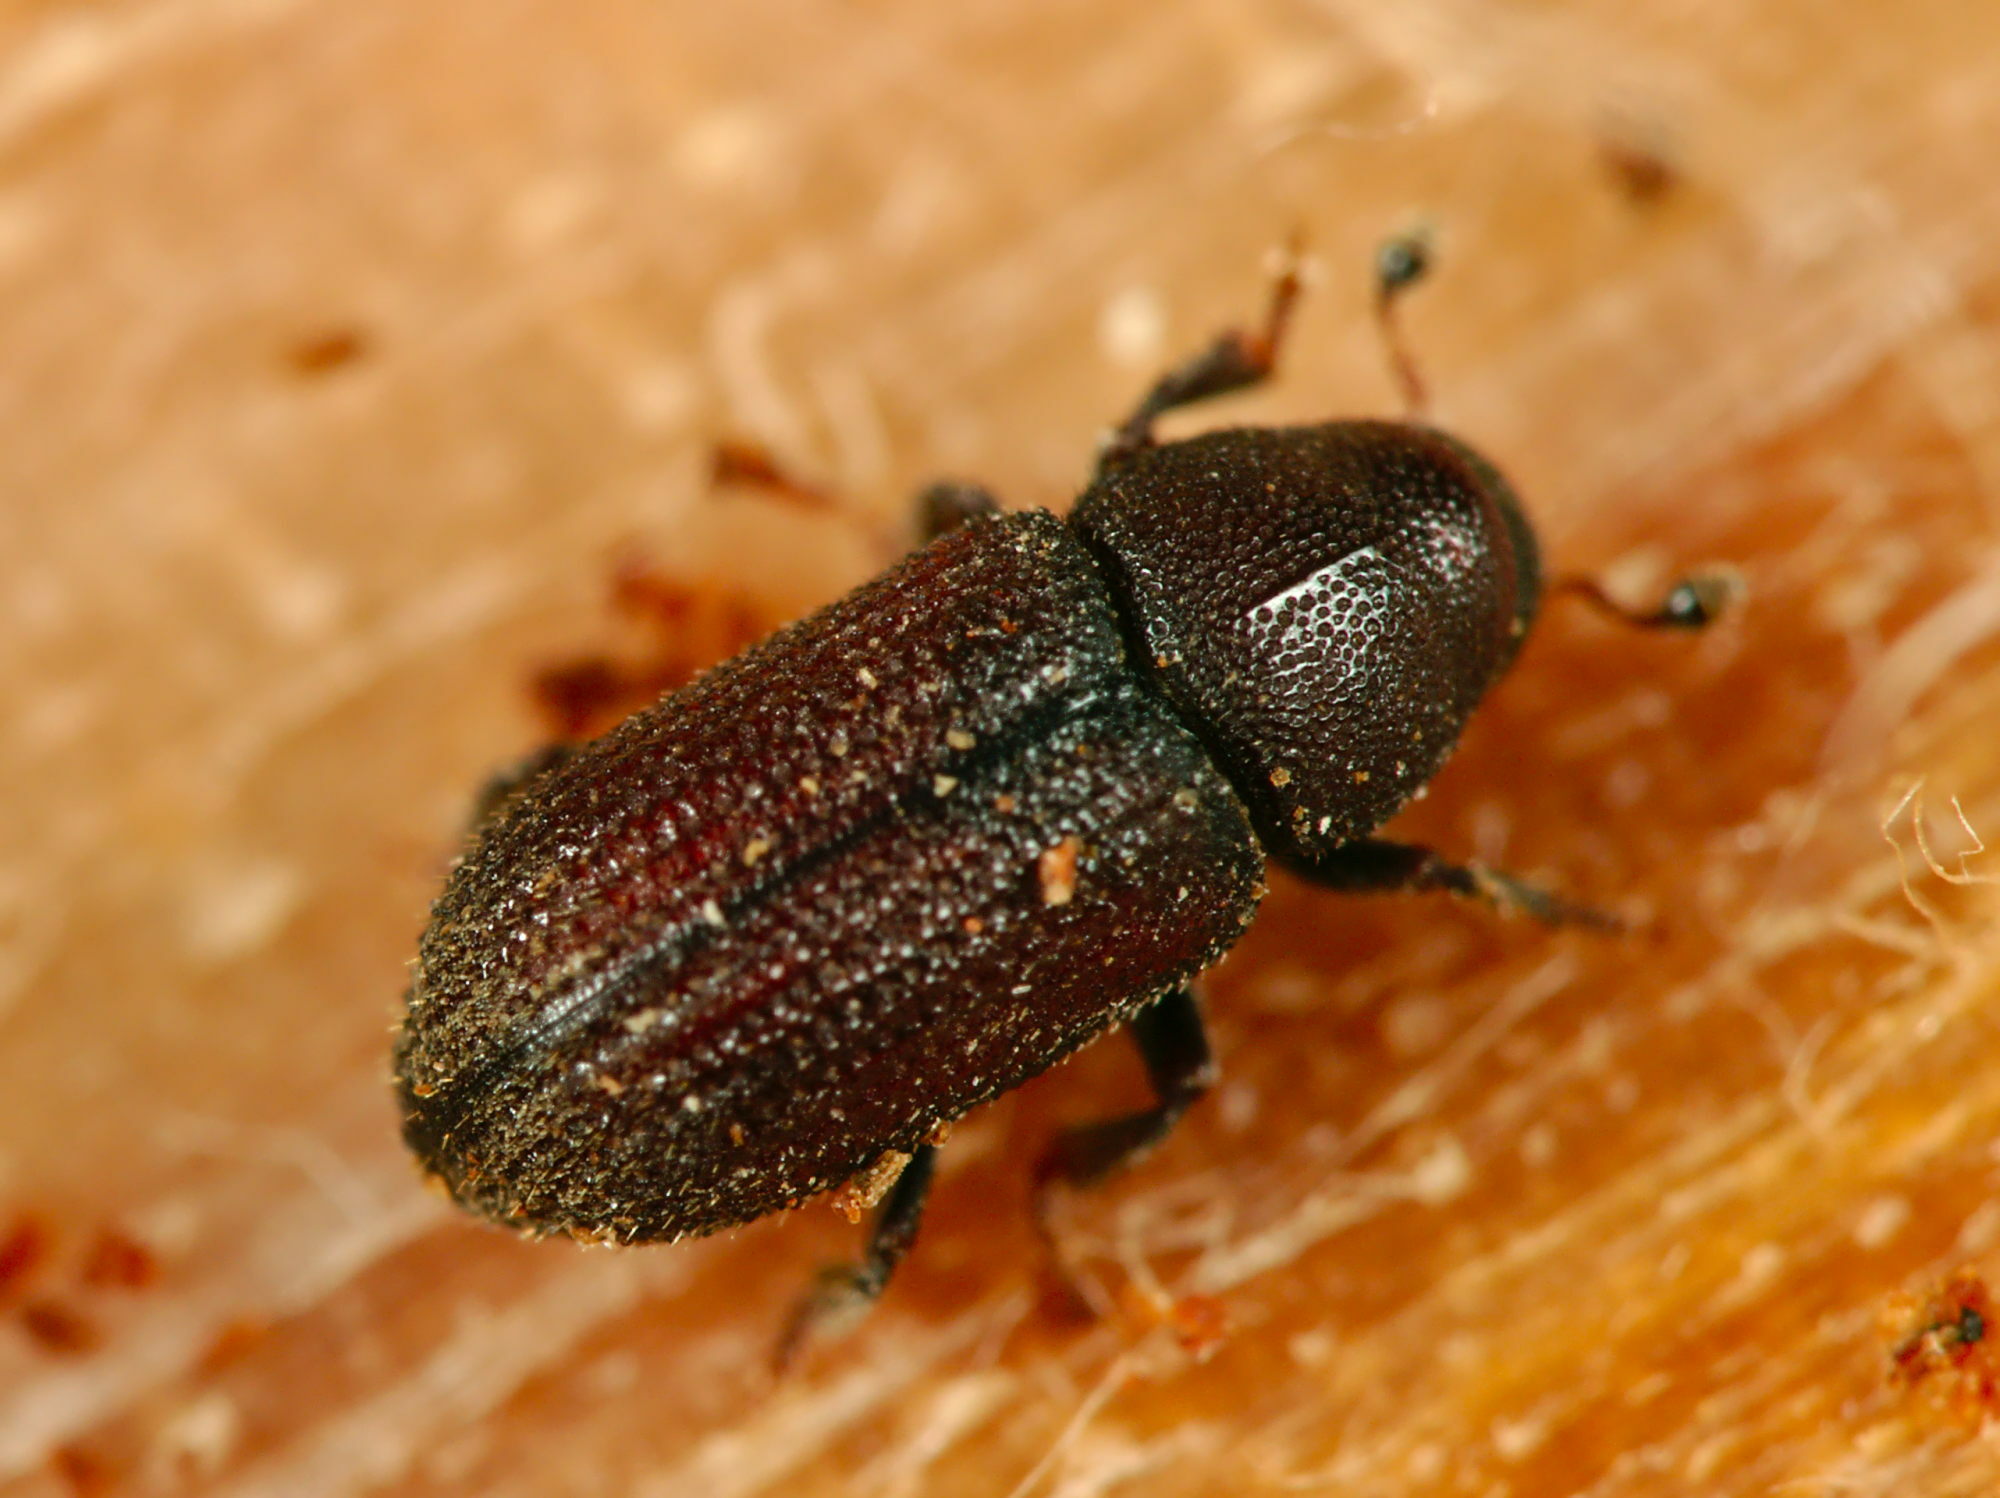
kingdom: Animalia
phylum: Arthropoda
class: Insecta
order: Coleoptera
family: Curculionidae
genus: Hylurgops
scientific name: Hylurgops palliatus
